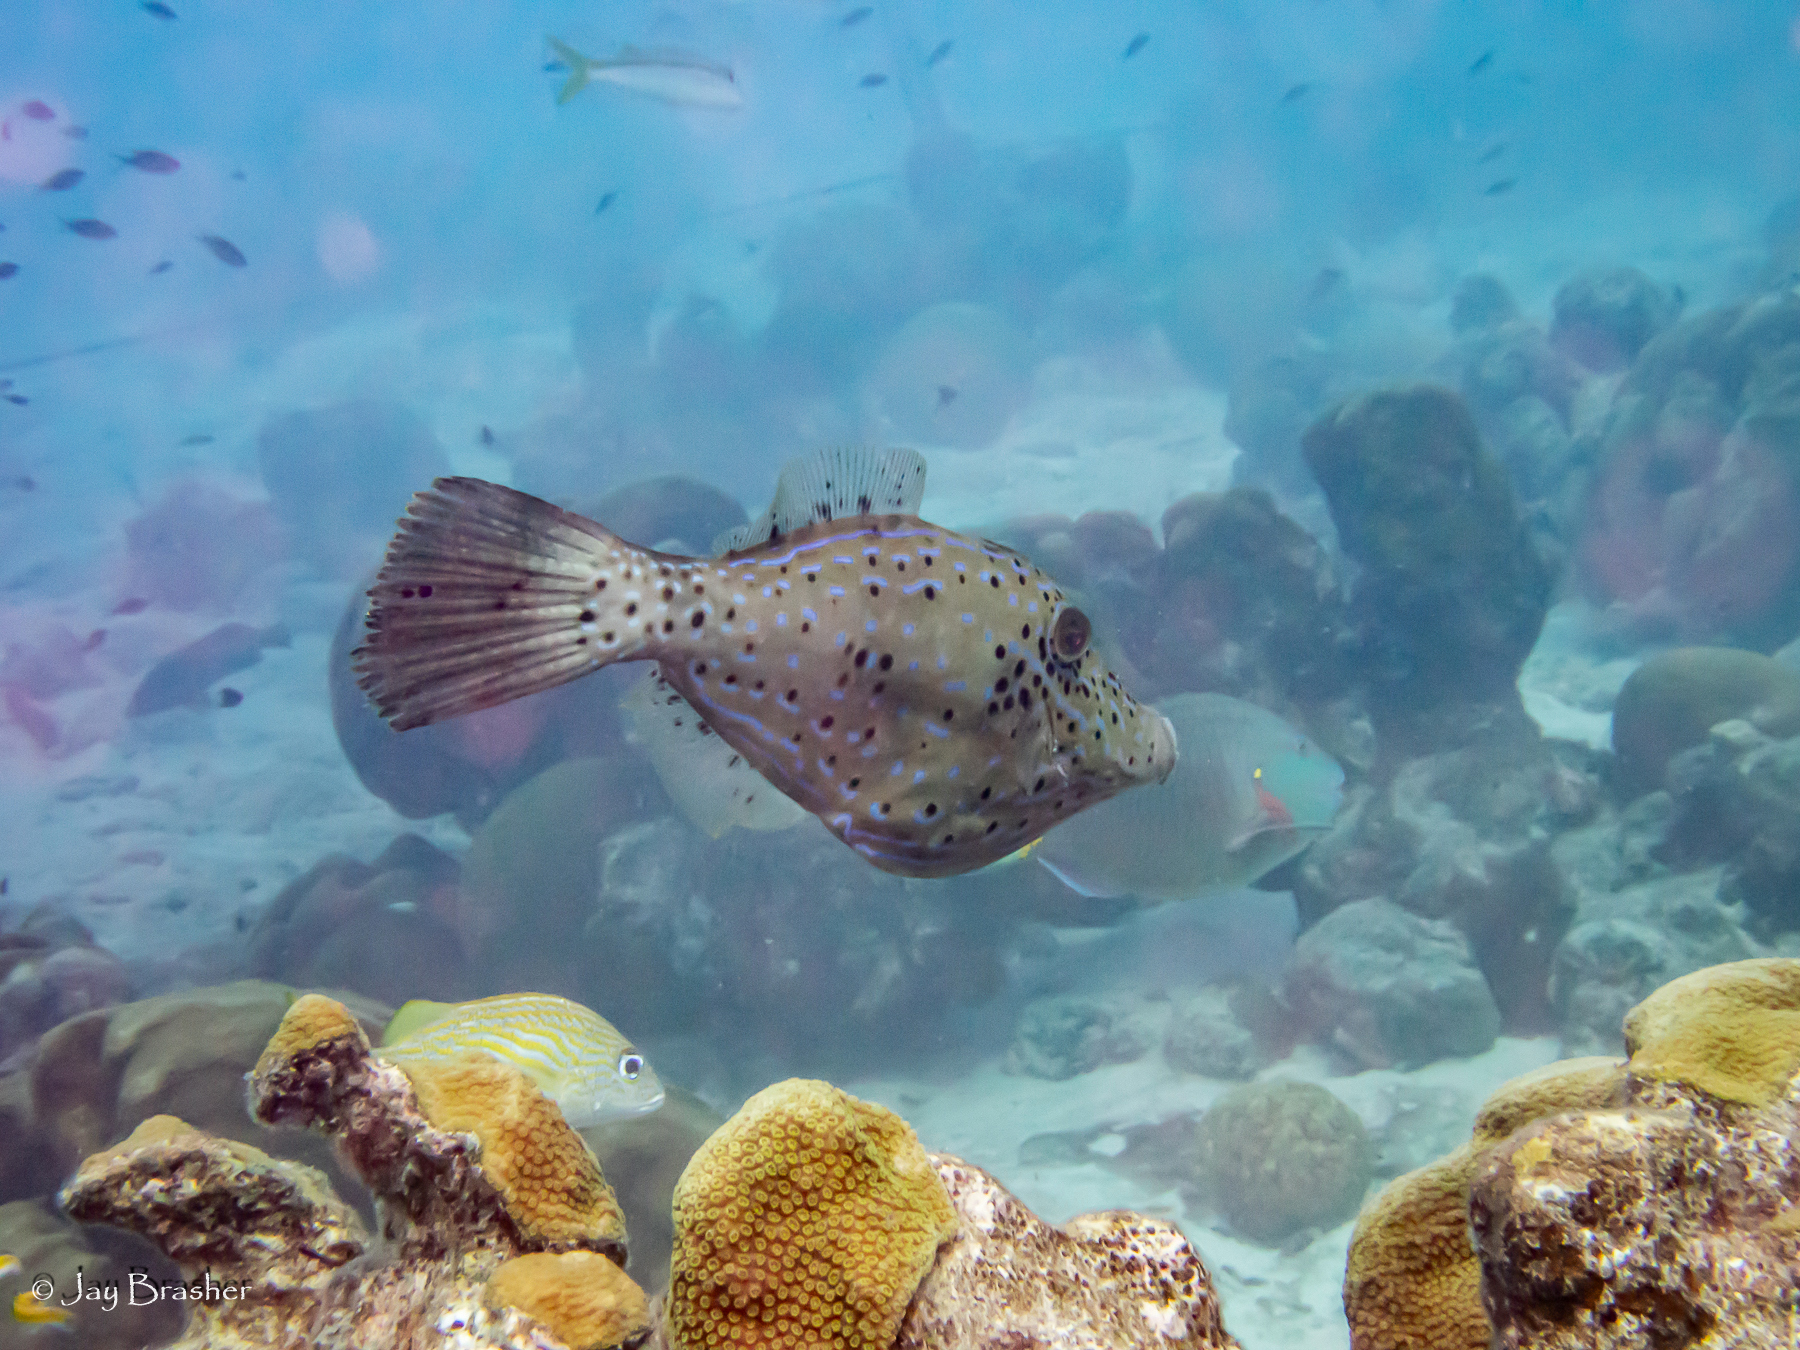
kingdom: Animalia
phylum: Chordata
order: Tetraodontiformes
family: Monacanthidae
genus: Aluterus
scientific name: Aluterus scriptus
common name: Scribbled leatherjacket filefish
